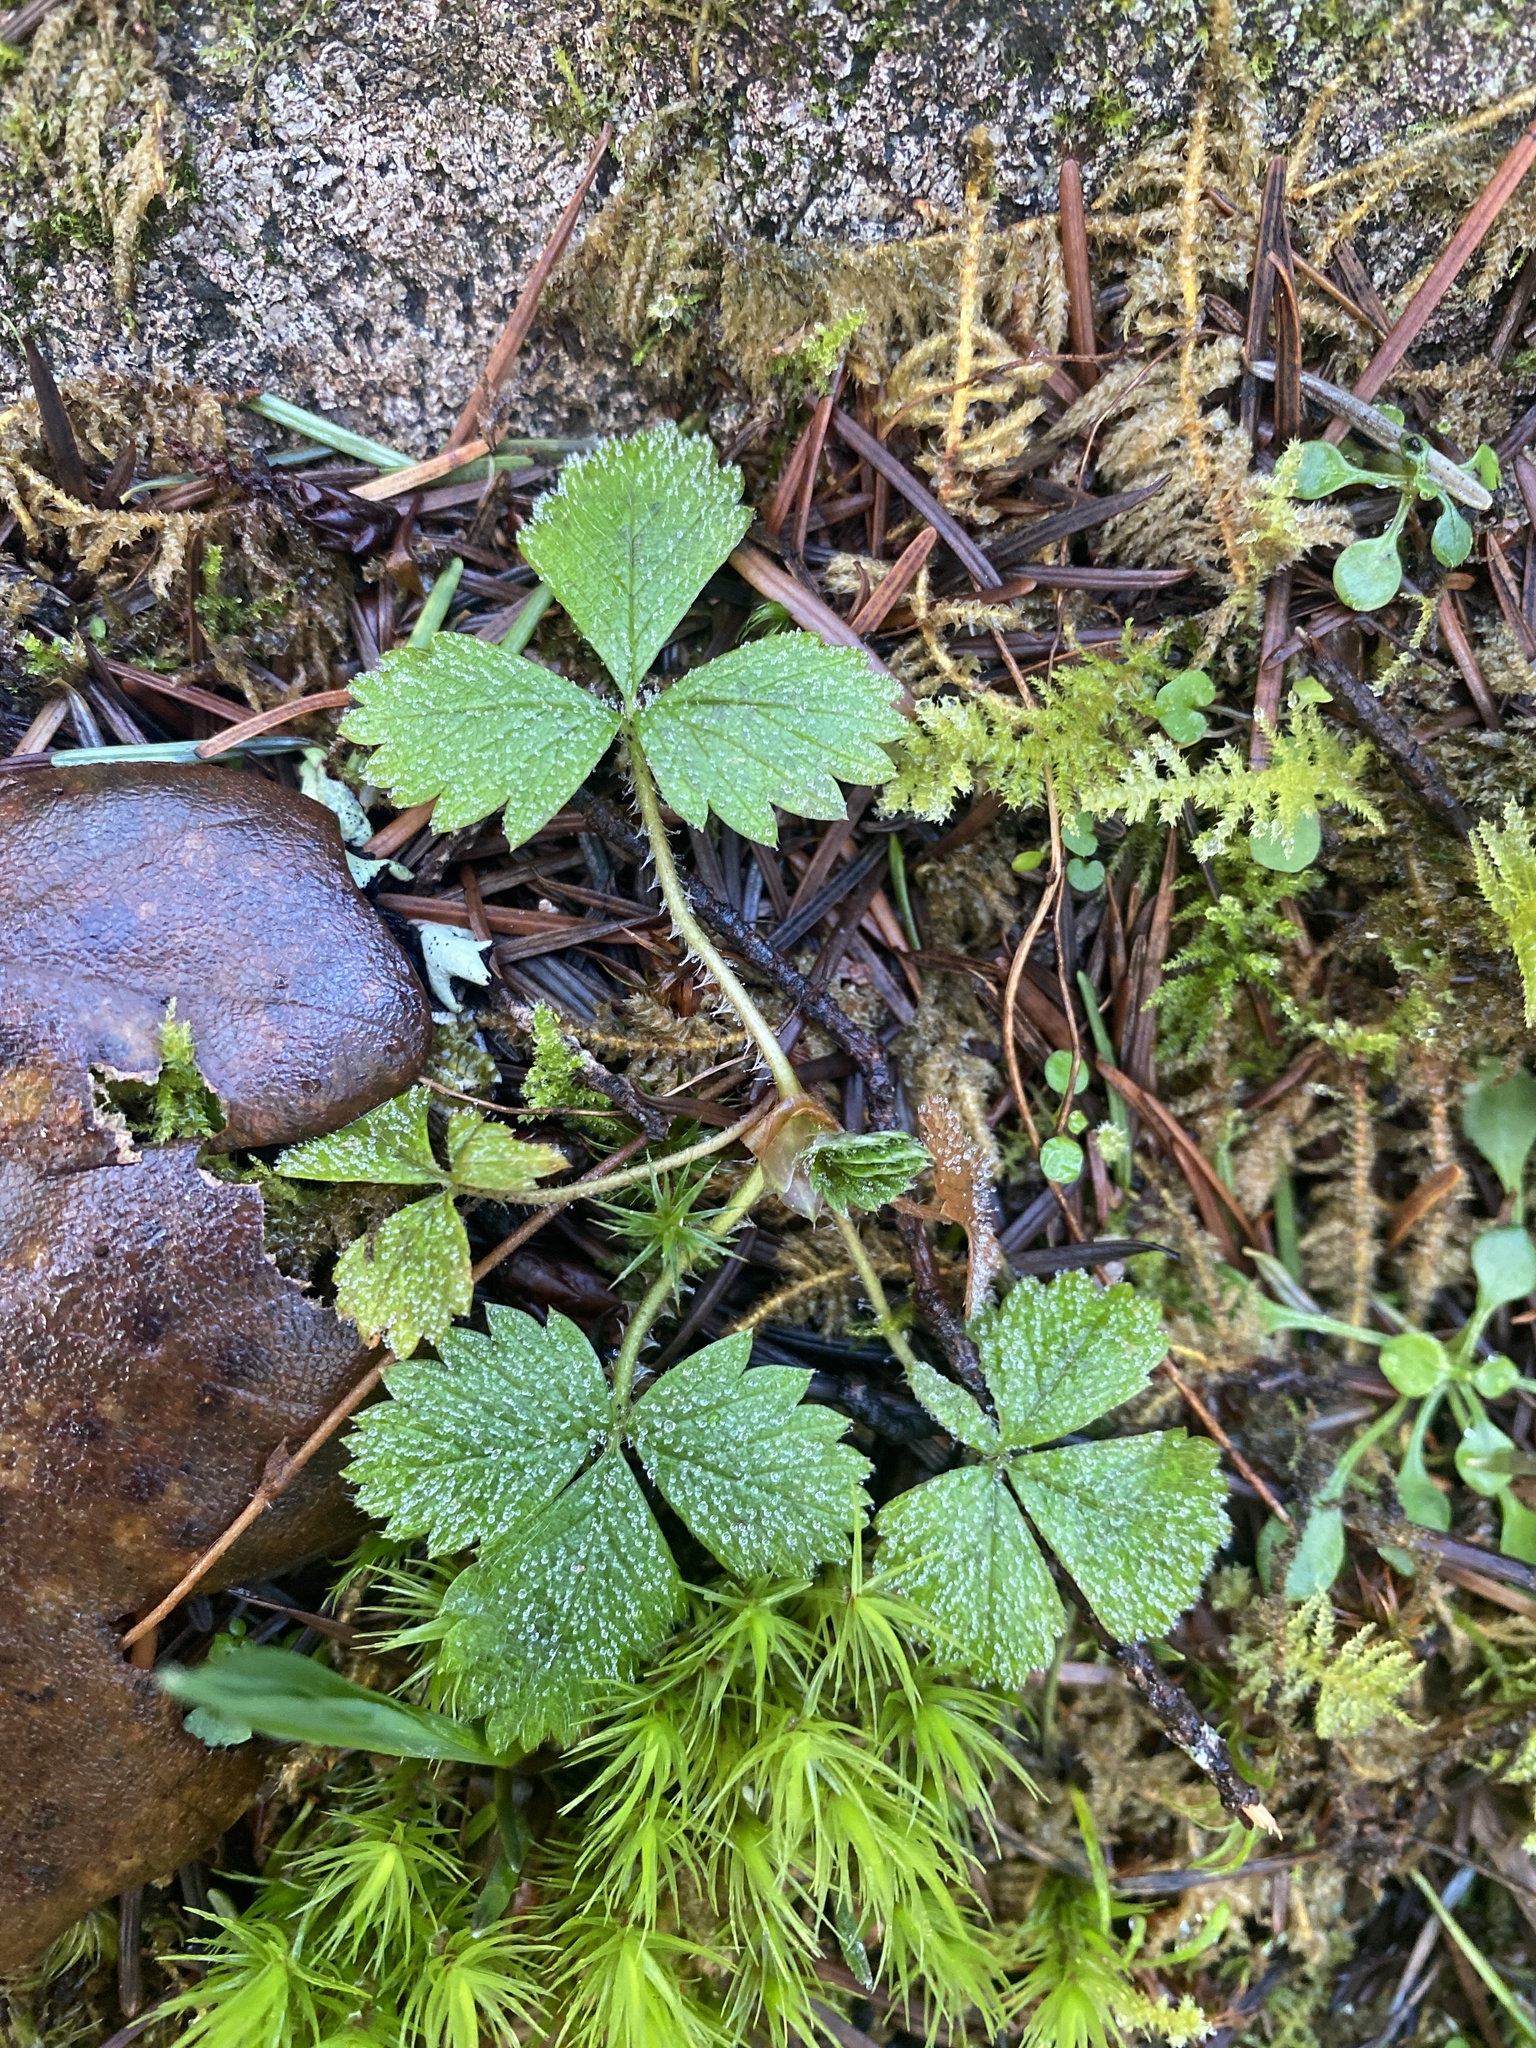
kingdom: Plantae
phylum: Tracheophyta
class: Magnoliopsida
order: Rosales
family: Rosaceae
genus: Fragaria
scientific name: Fragaria vesca
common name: Wild strawberry
